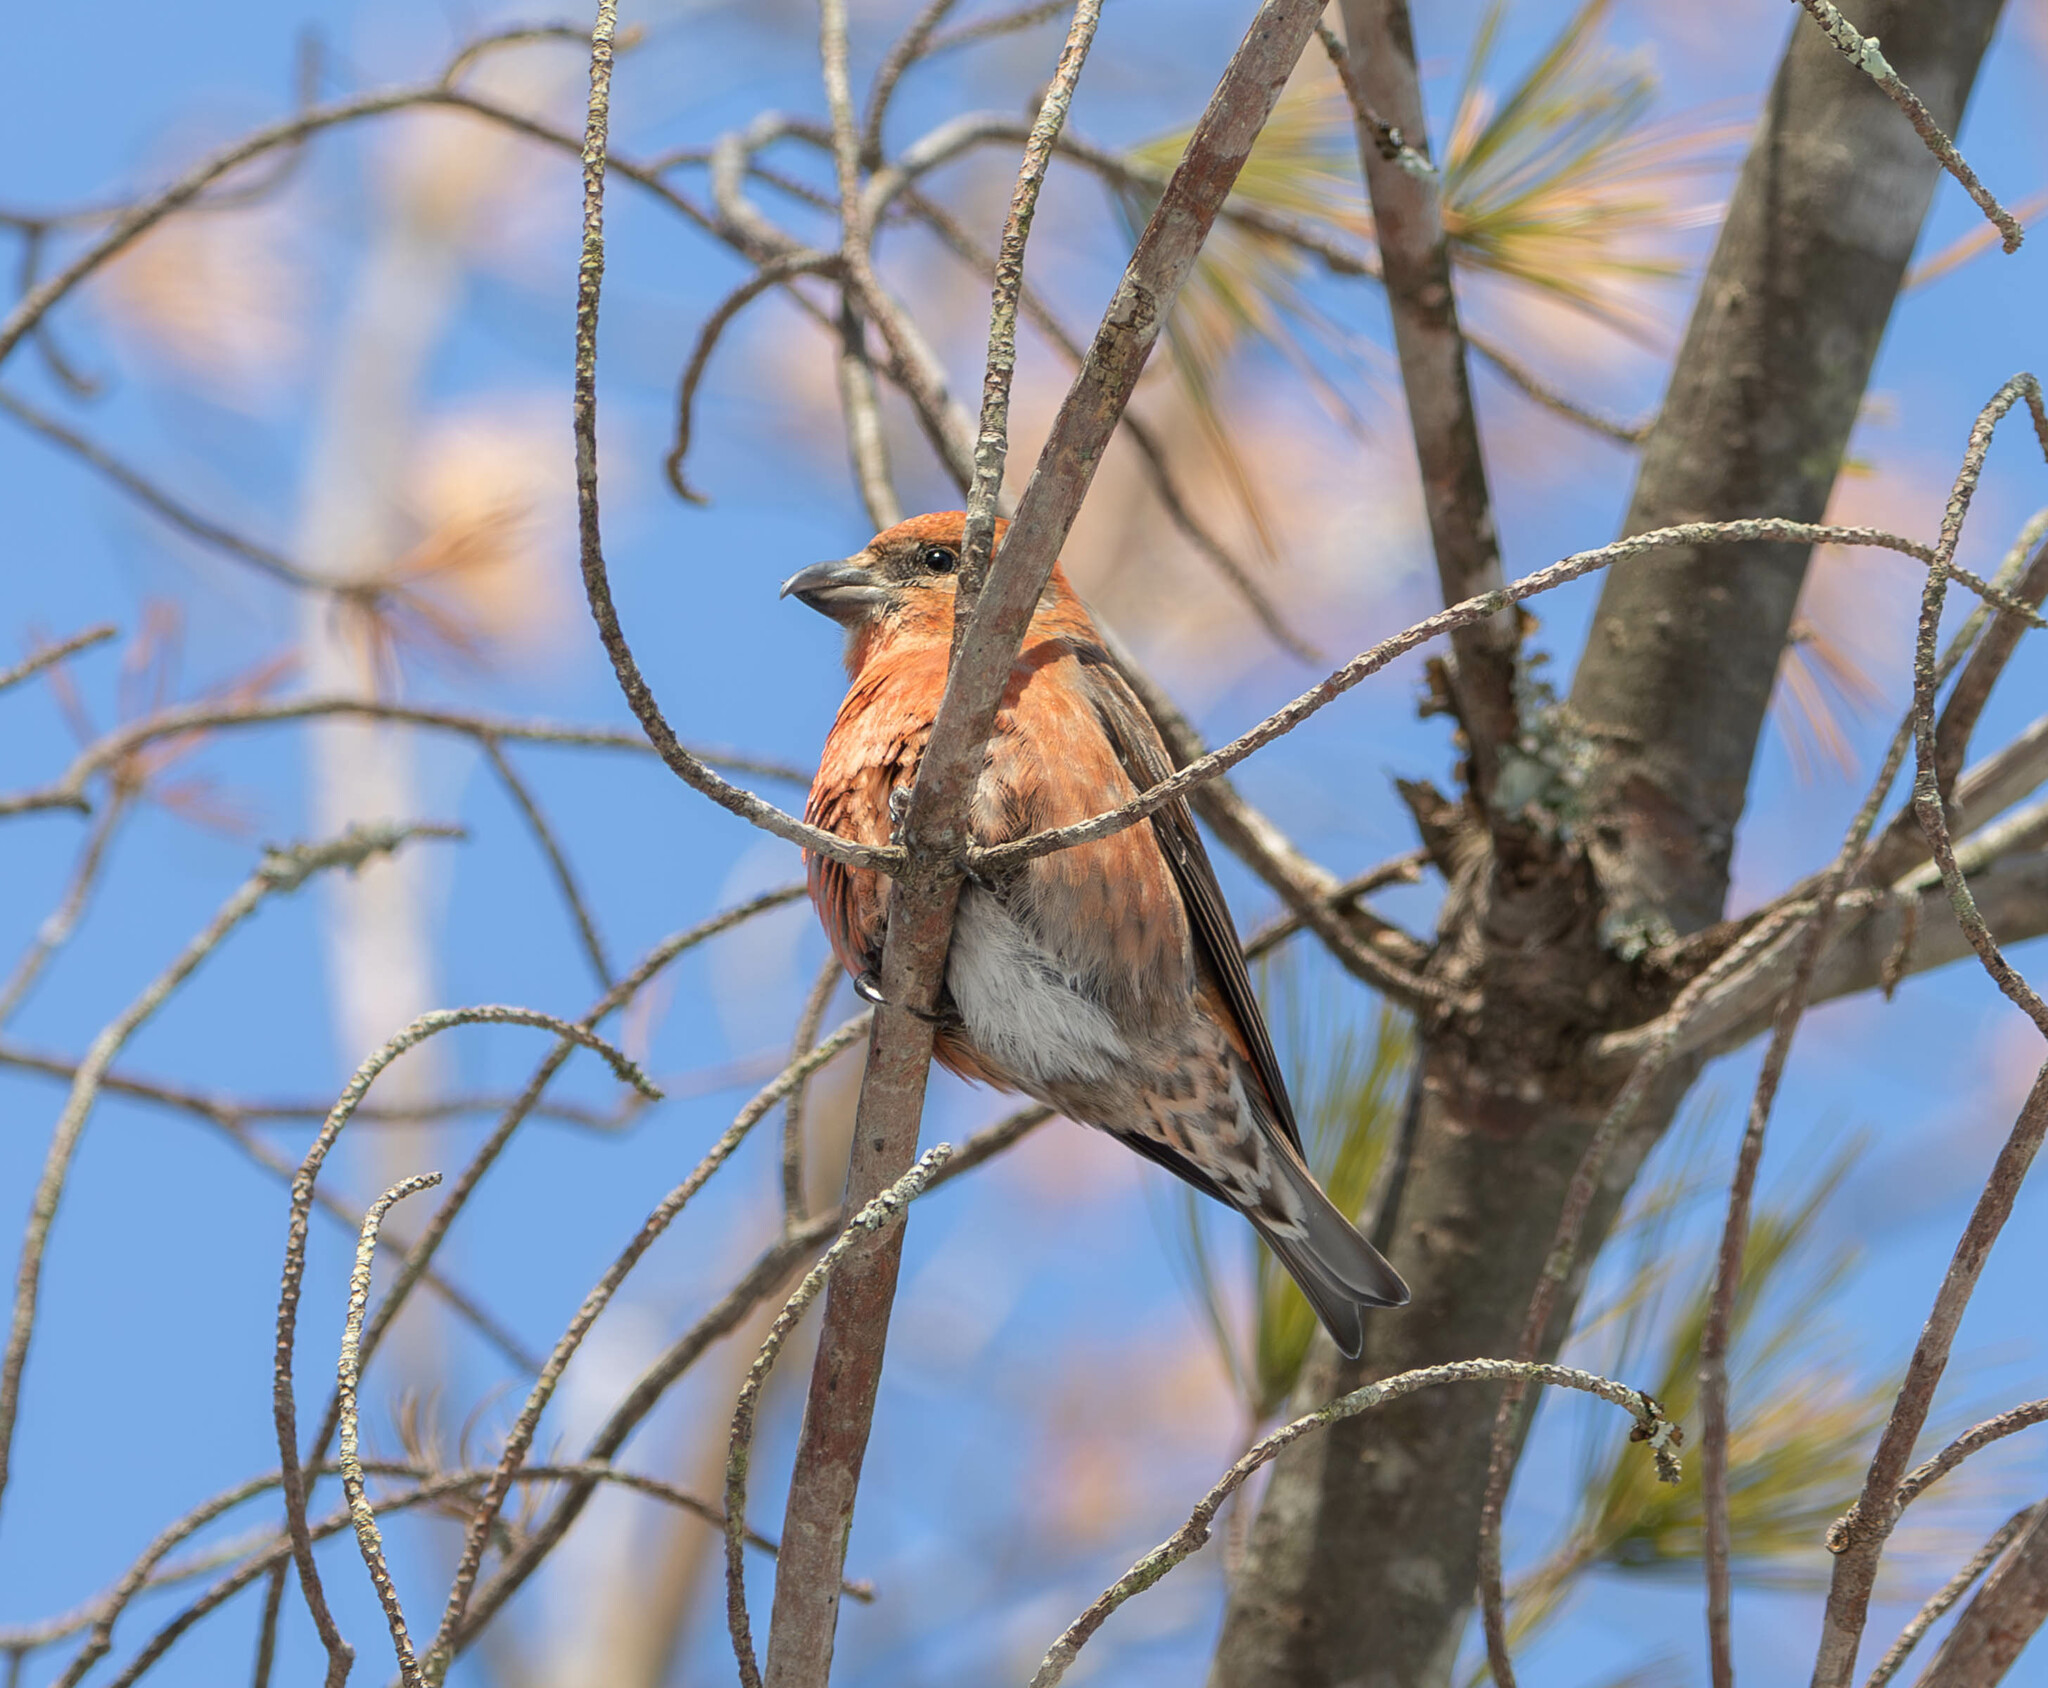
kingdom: Animalia
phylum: Chordata
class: Aves
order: Passeriformes
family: Fringillidae
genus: Loxia
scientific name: Loxia curvirostra
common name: Red crossbill
